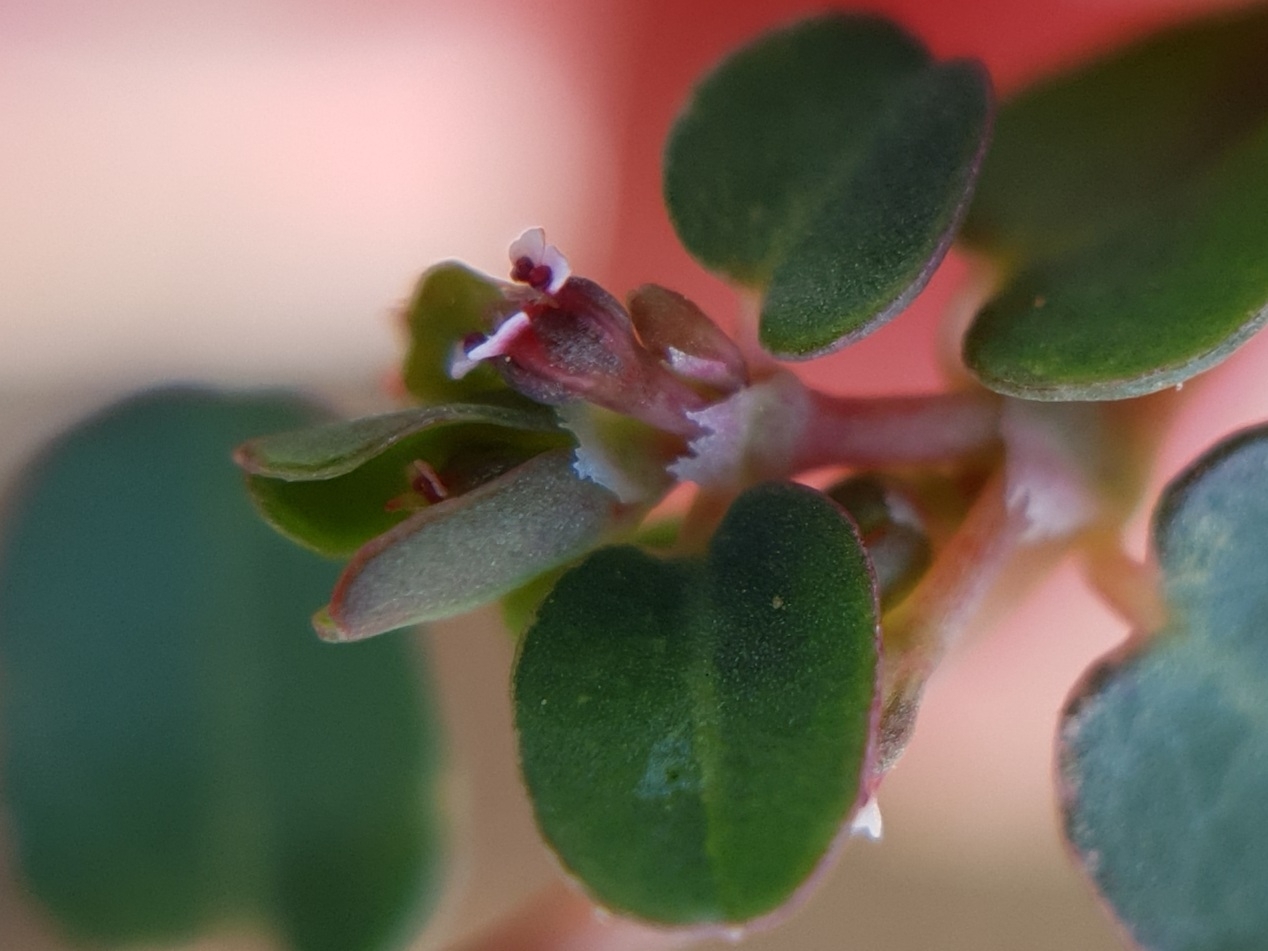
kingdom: Plantae
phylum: Tracheophyta
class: Magnoliopsida
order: Malpighiales
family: Euphorbiaceae
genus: Euphorbia
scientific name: Euphorbia serpens
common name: Matted sandmat
